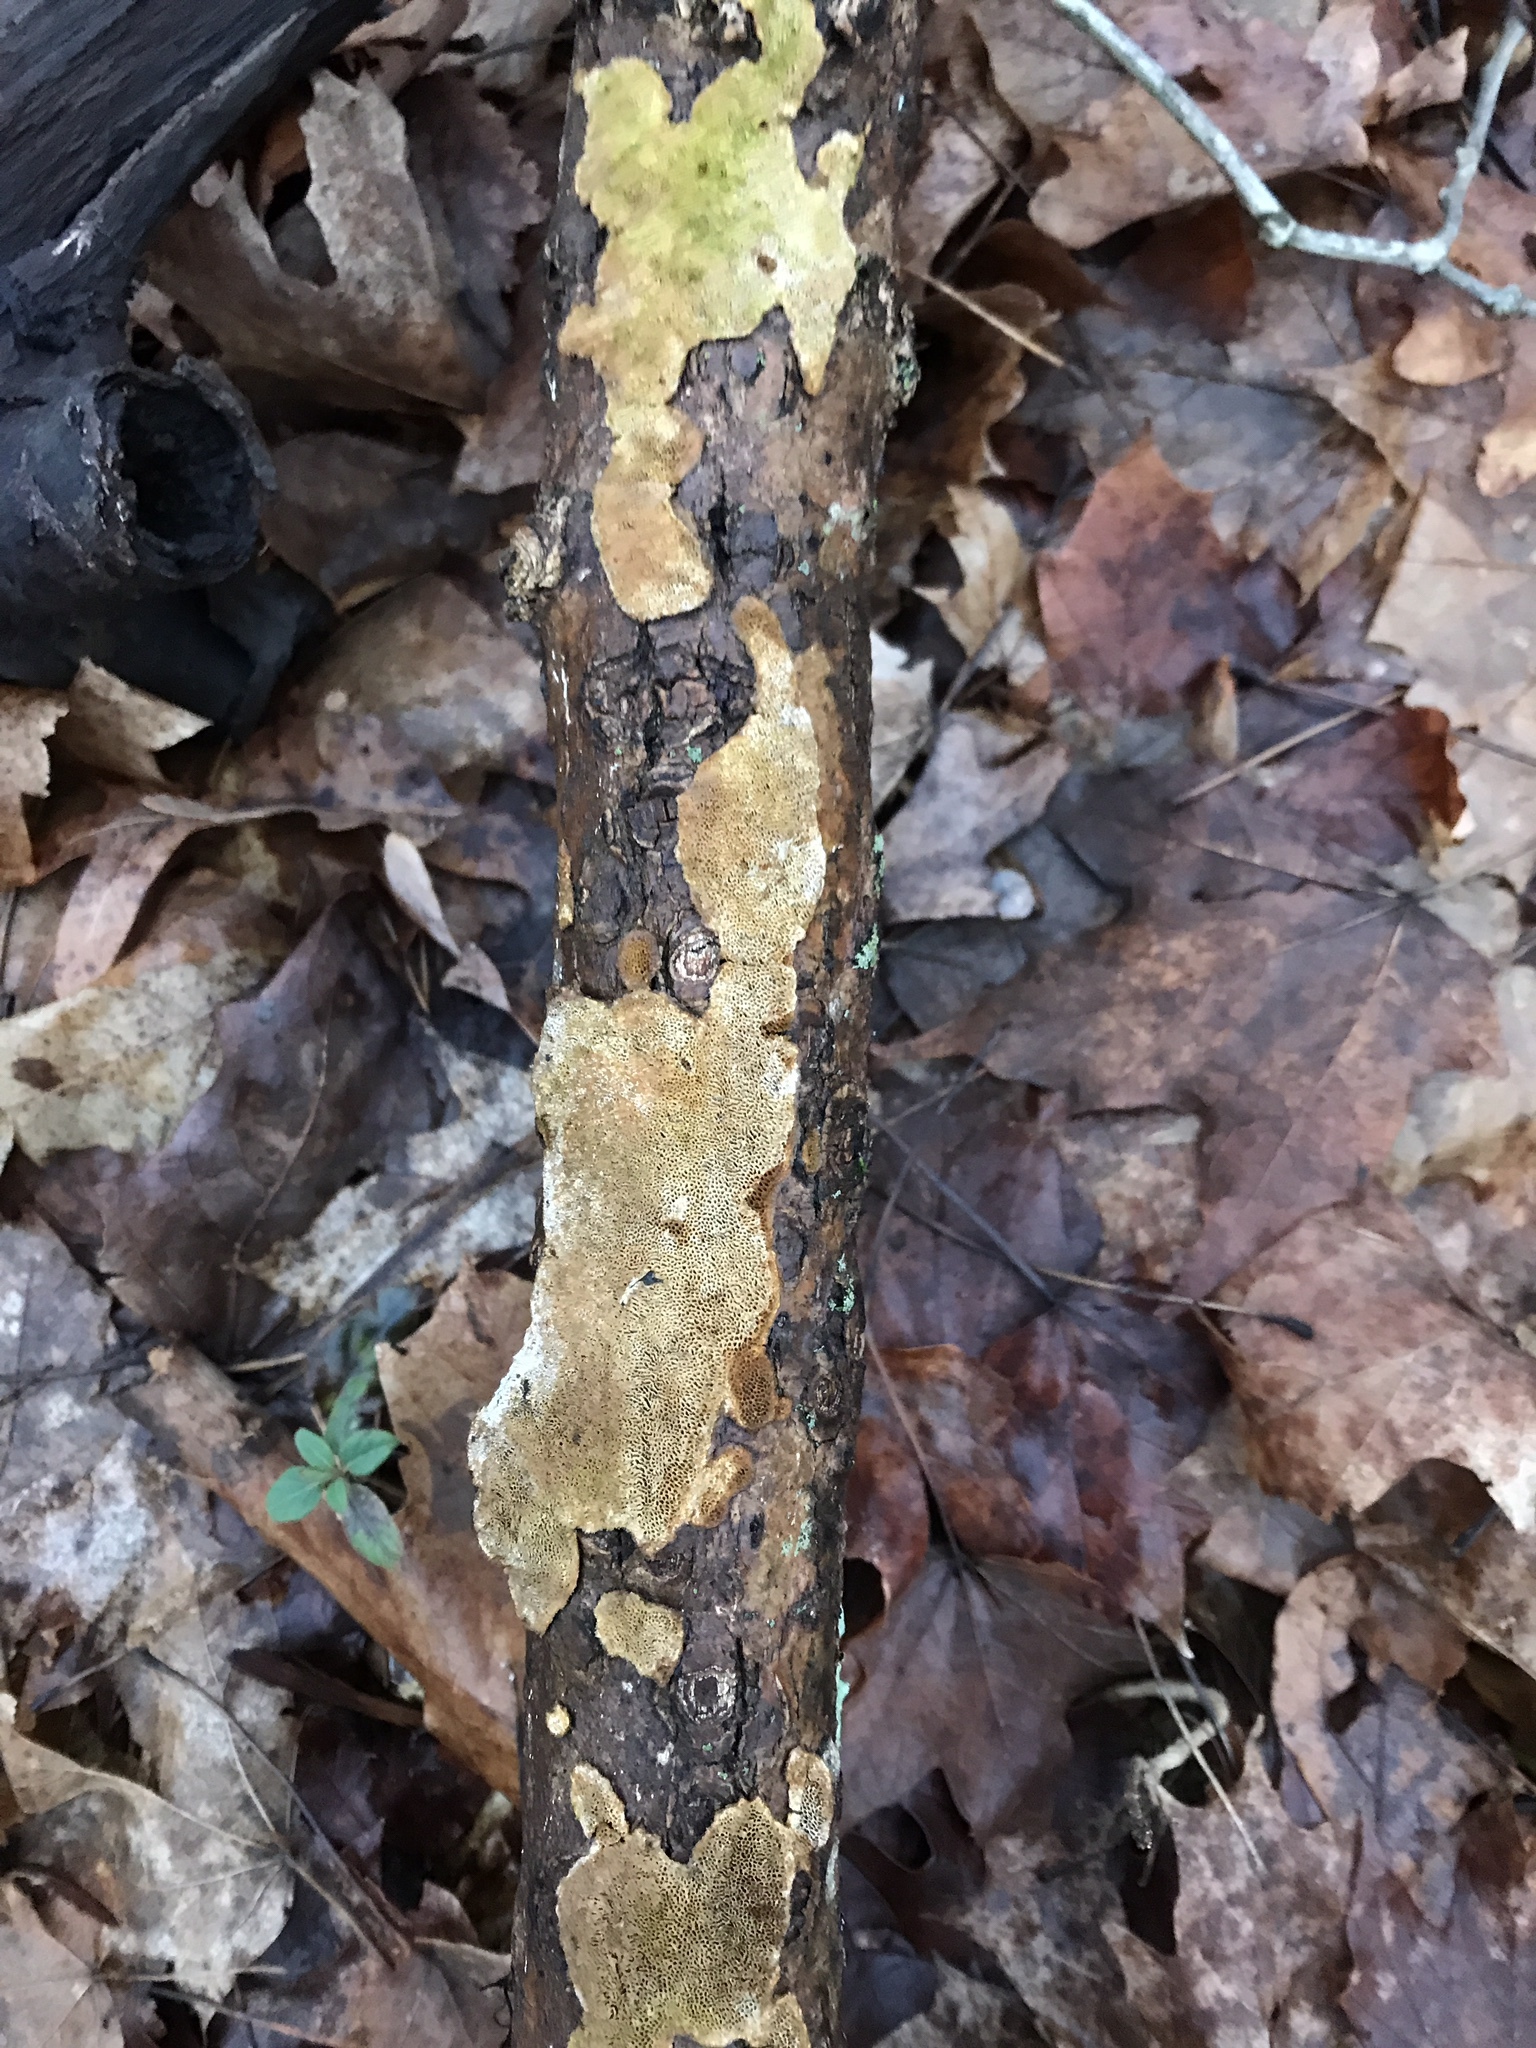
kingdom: Fungi
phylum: Basidiomycota
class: Agaricomycetes
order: Polyporales
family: Steccherinaceae
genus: Junghuhnia
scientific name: Junghuhnia nitida
